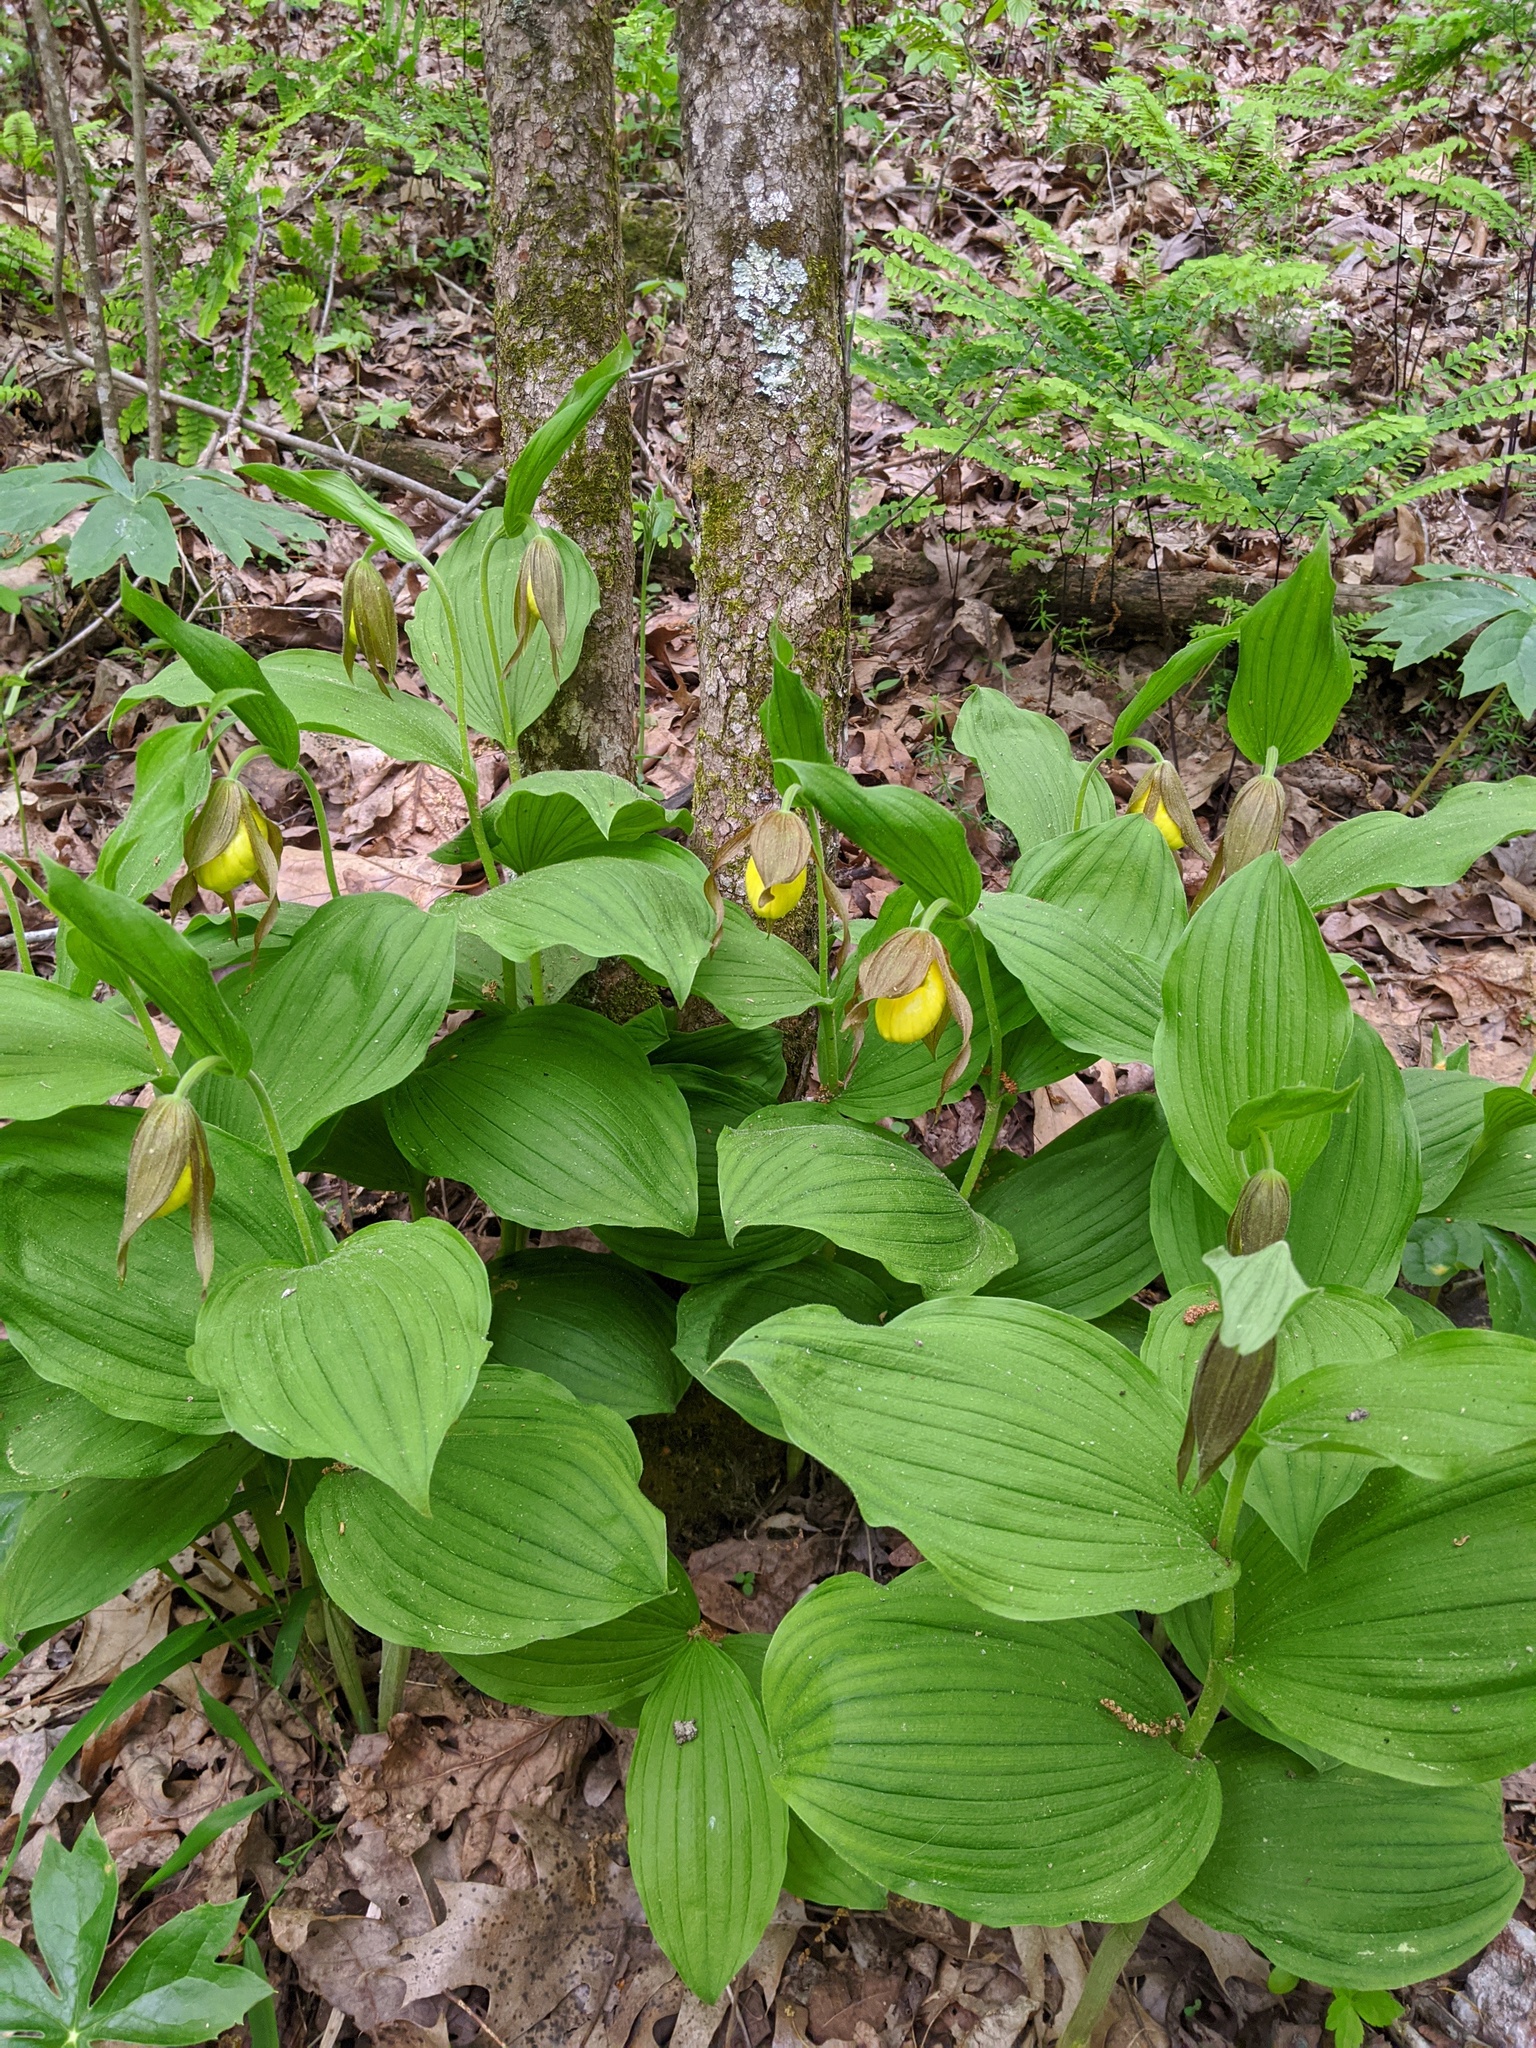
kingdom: Plantae
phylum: Tracheophyta
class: Liliopsida
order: Asparagales
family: Orchidaceae
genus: Cypripedium
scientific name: Cypripedium parviflorum
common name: American yellow lady's-slipper
